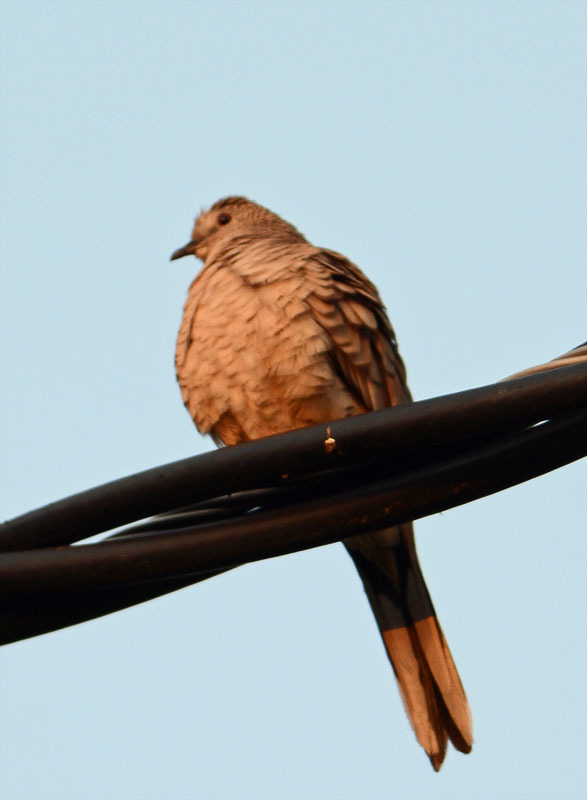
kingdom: Animalia
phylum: Chordata
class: Aves
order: Columbiformes
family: Columbidae
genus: Columbina
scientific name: Columbina inca
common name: Inca dove
